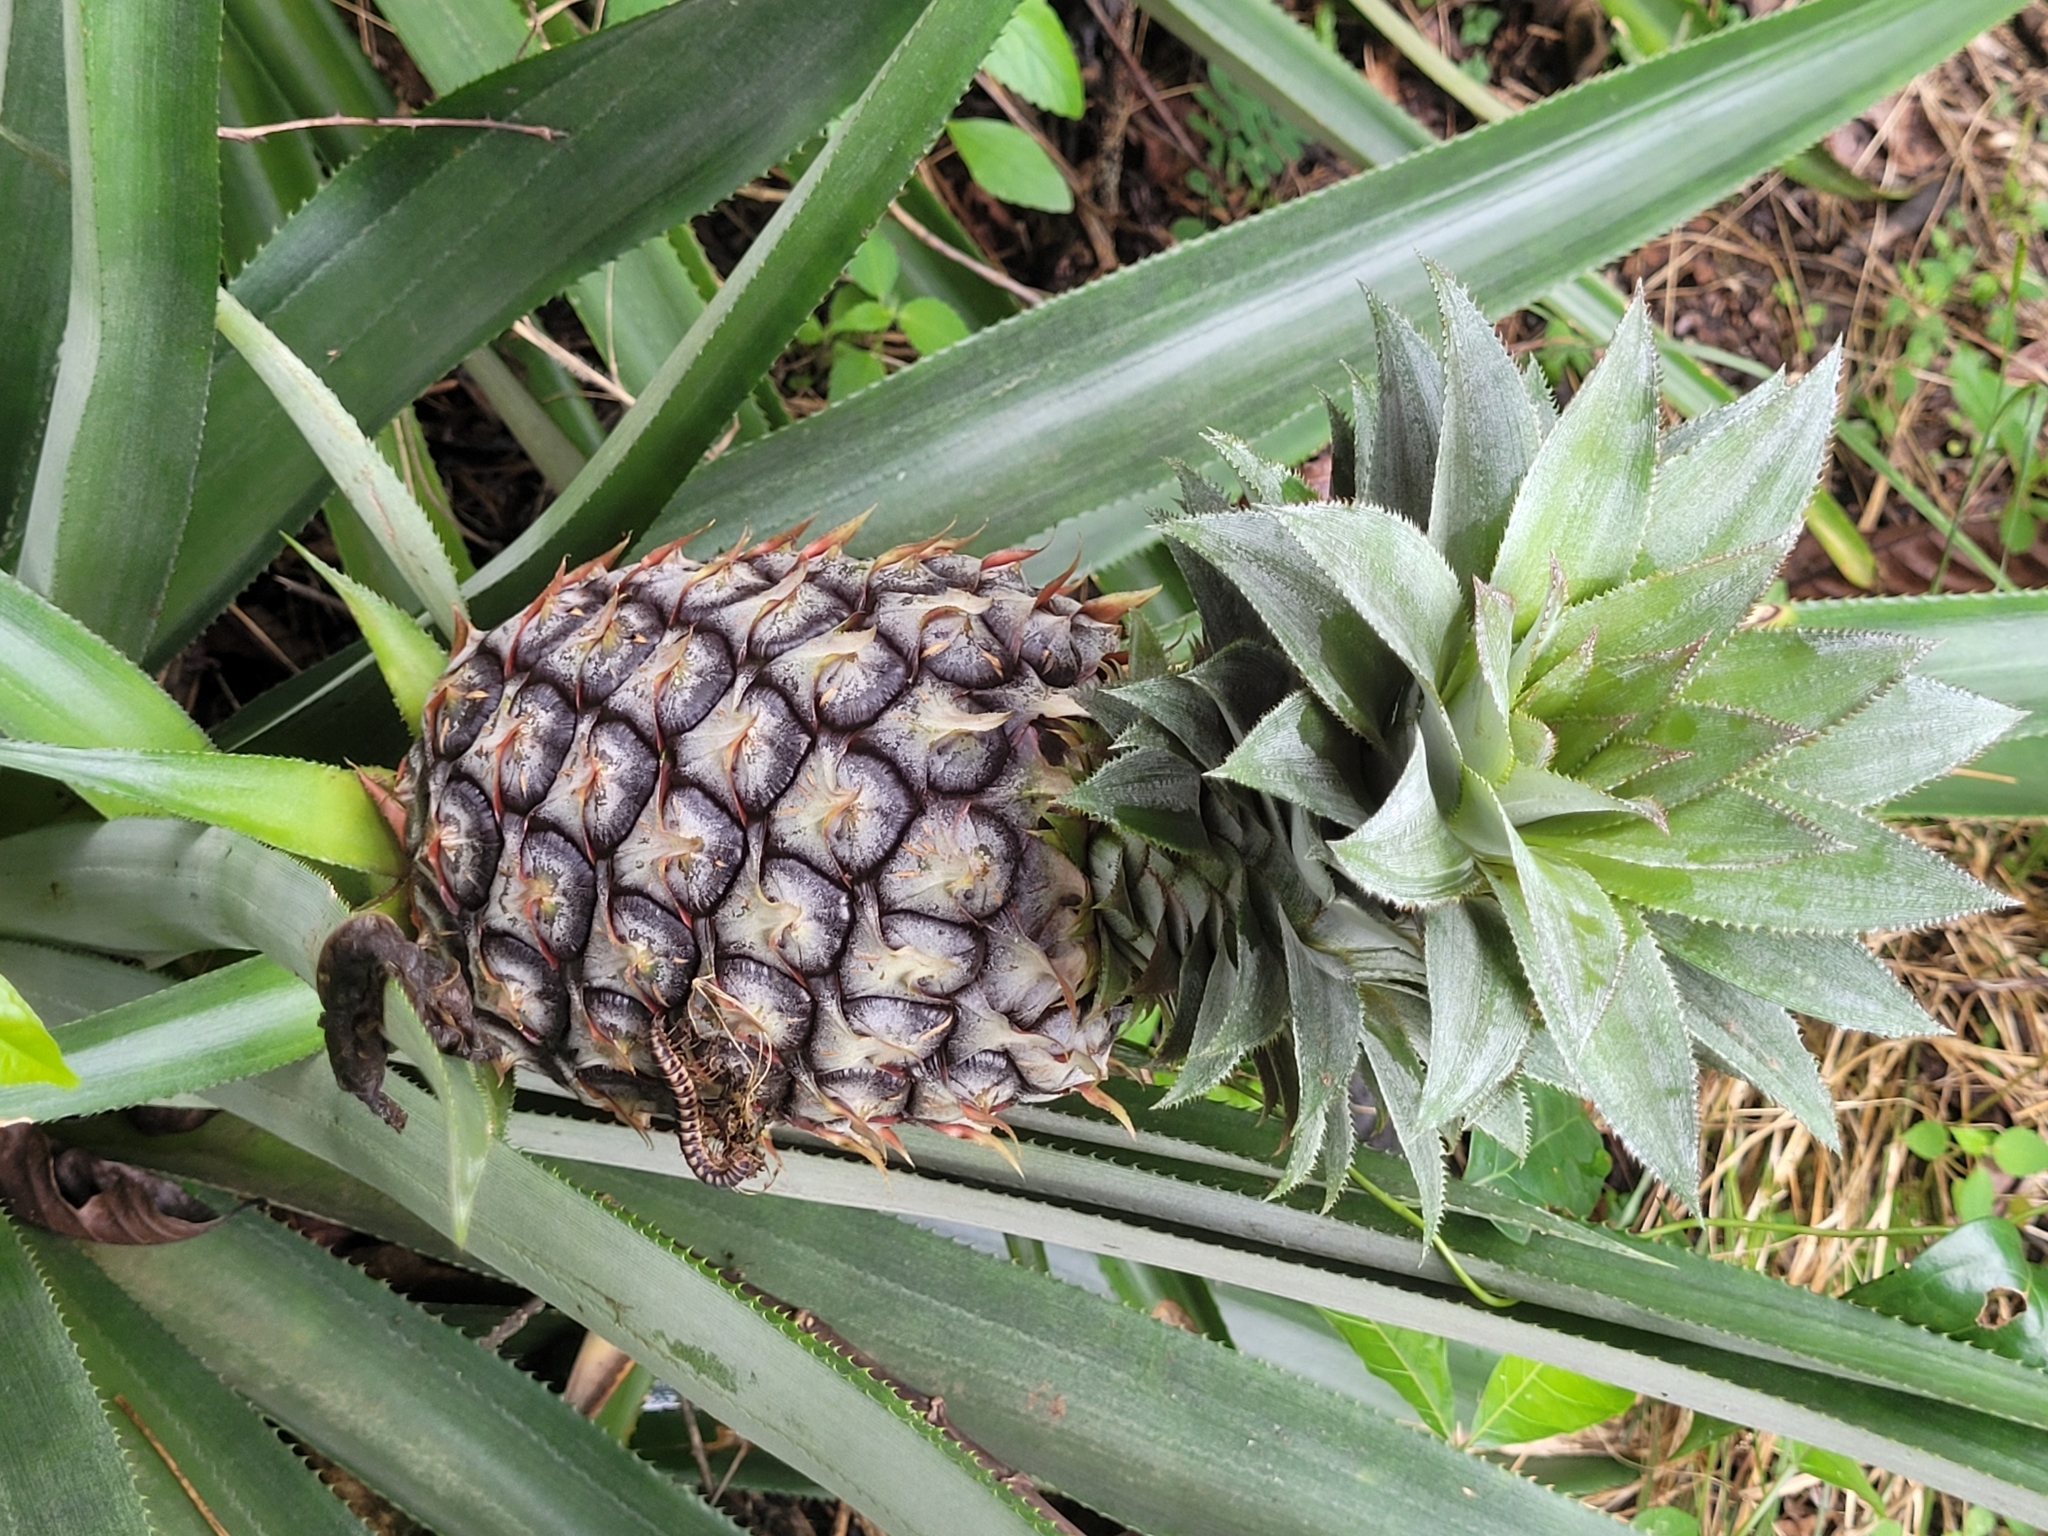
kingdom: Plantae
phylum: Tracheophyta
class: Liliopsida
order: Poales
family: Bromeliaceae
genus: Ananas
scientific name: Ananas comosus
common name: Pineapple
